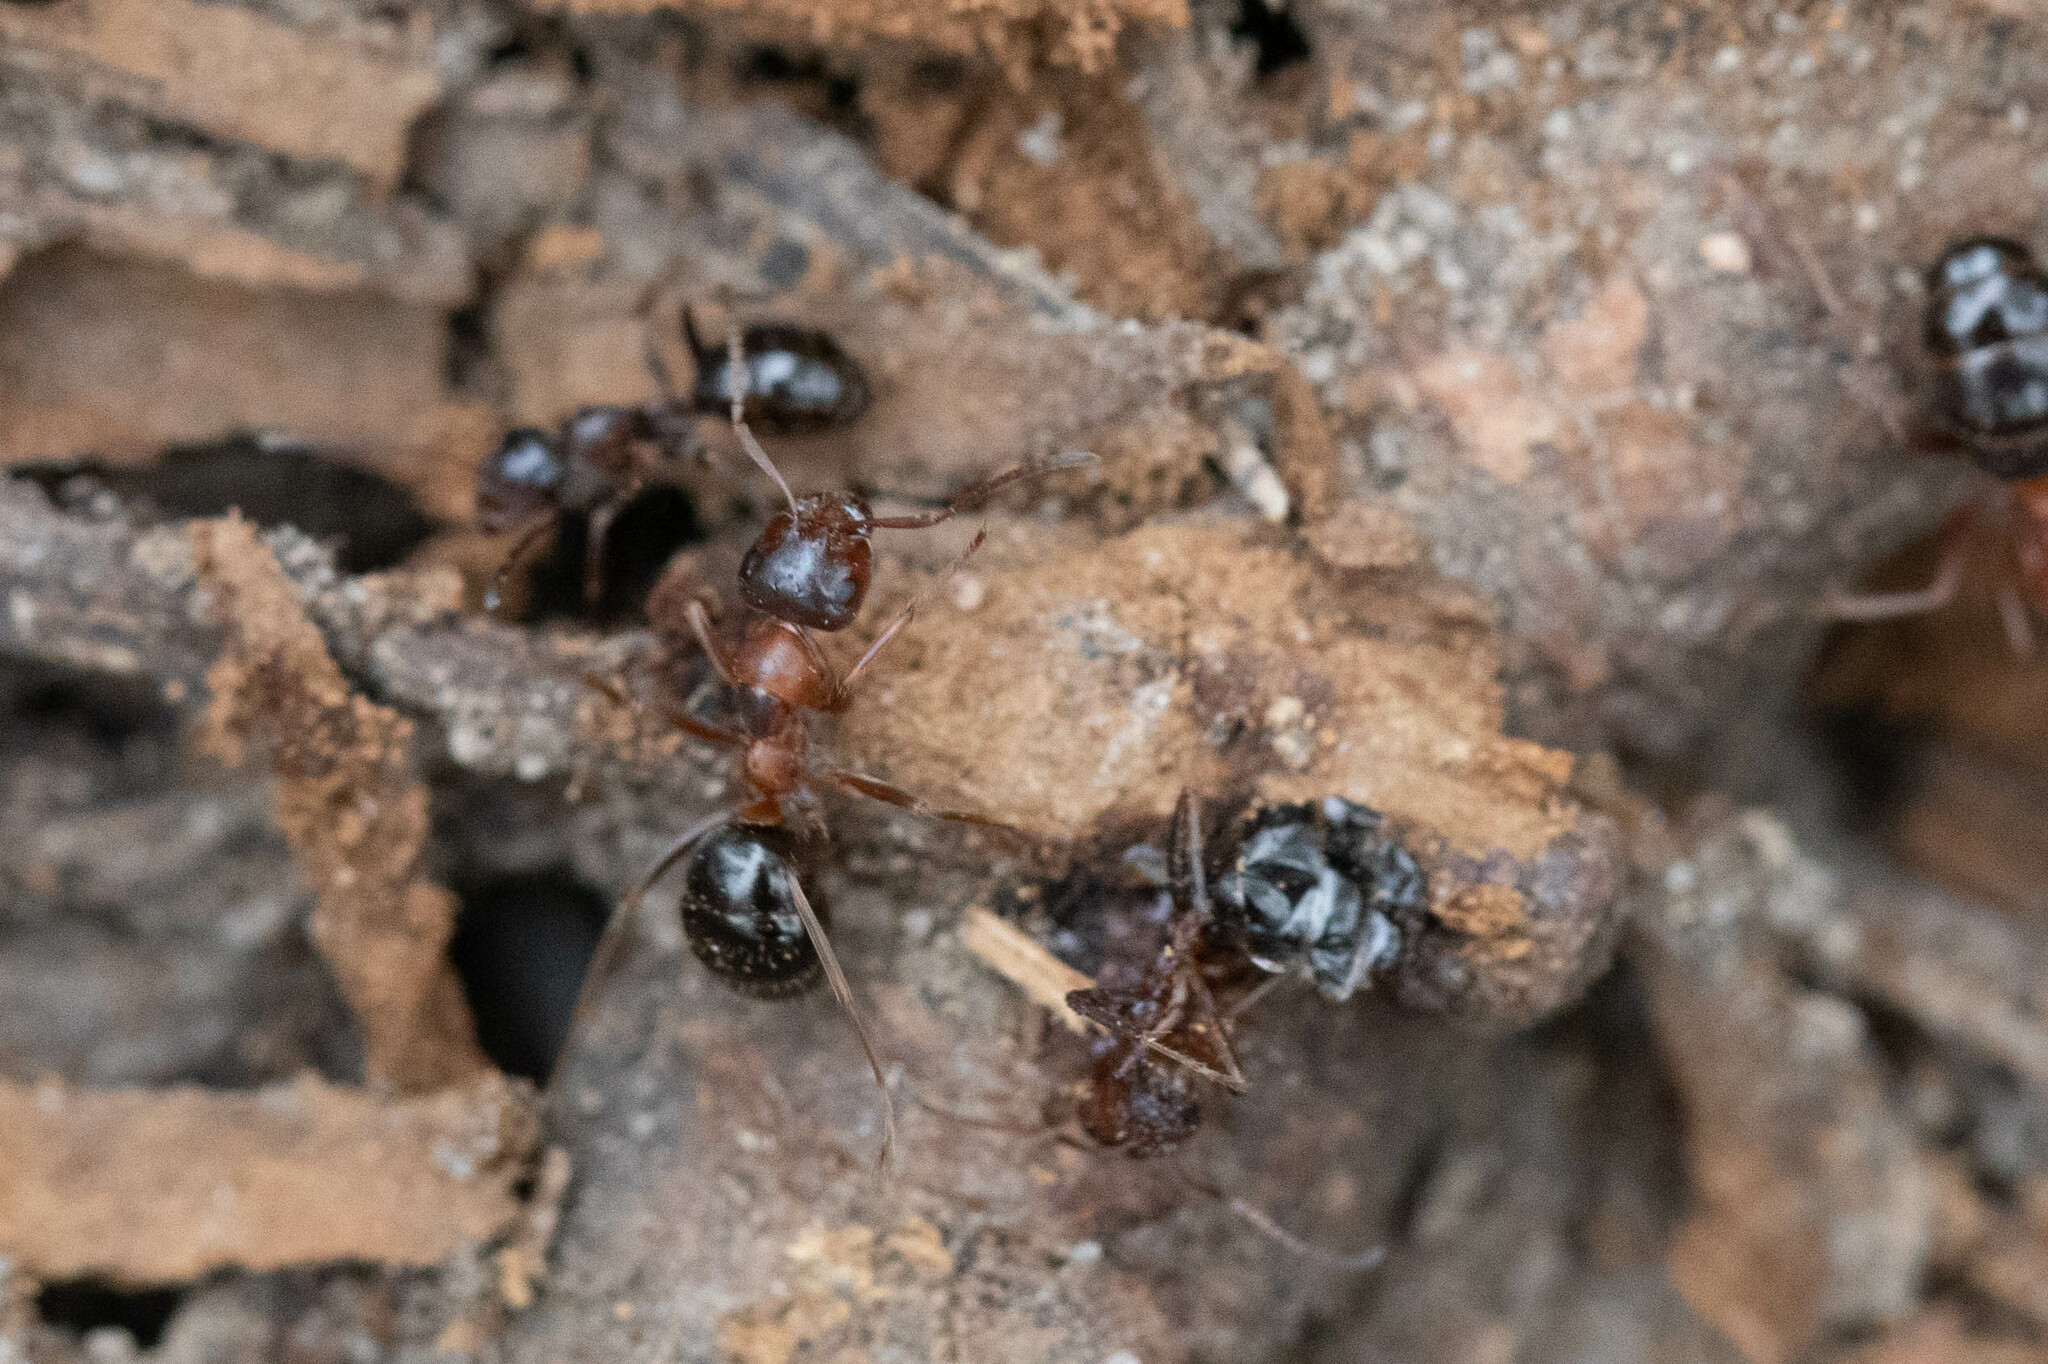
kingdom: Animalia
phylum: Arthropoda
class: Insecta
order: Hymenoptera
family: Formicidae
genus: Formica
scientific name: Formica subpolita
